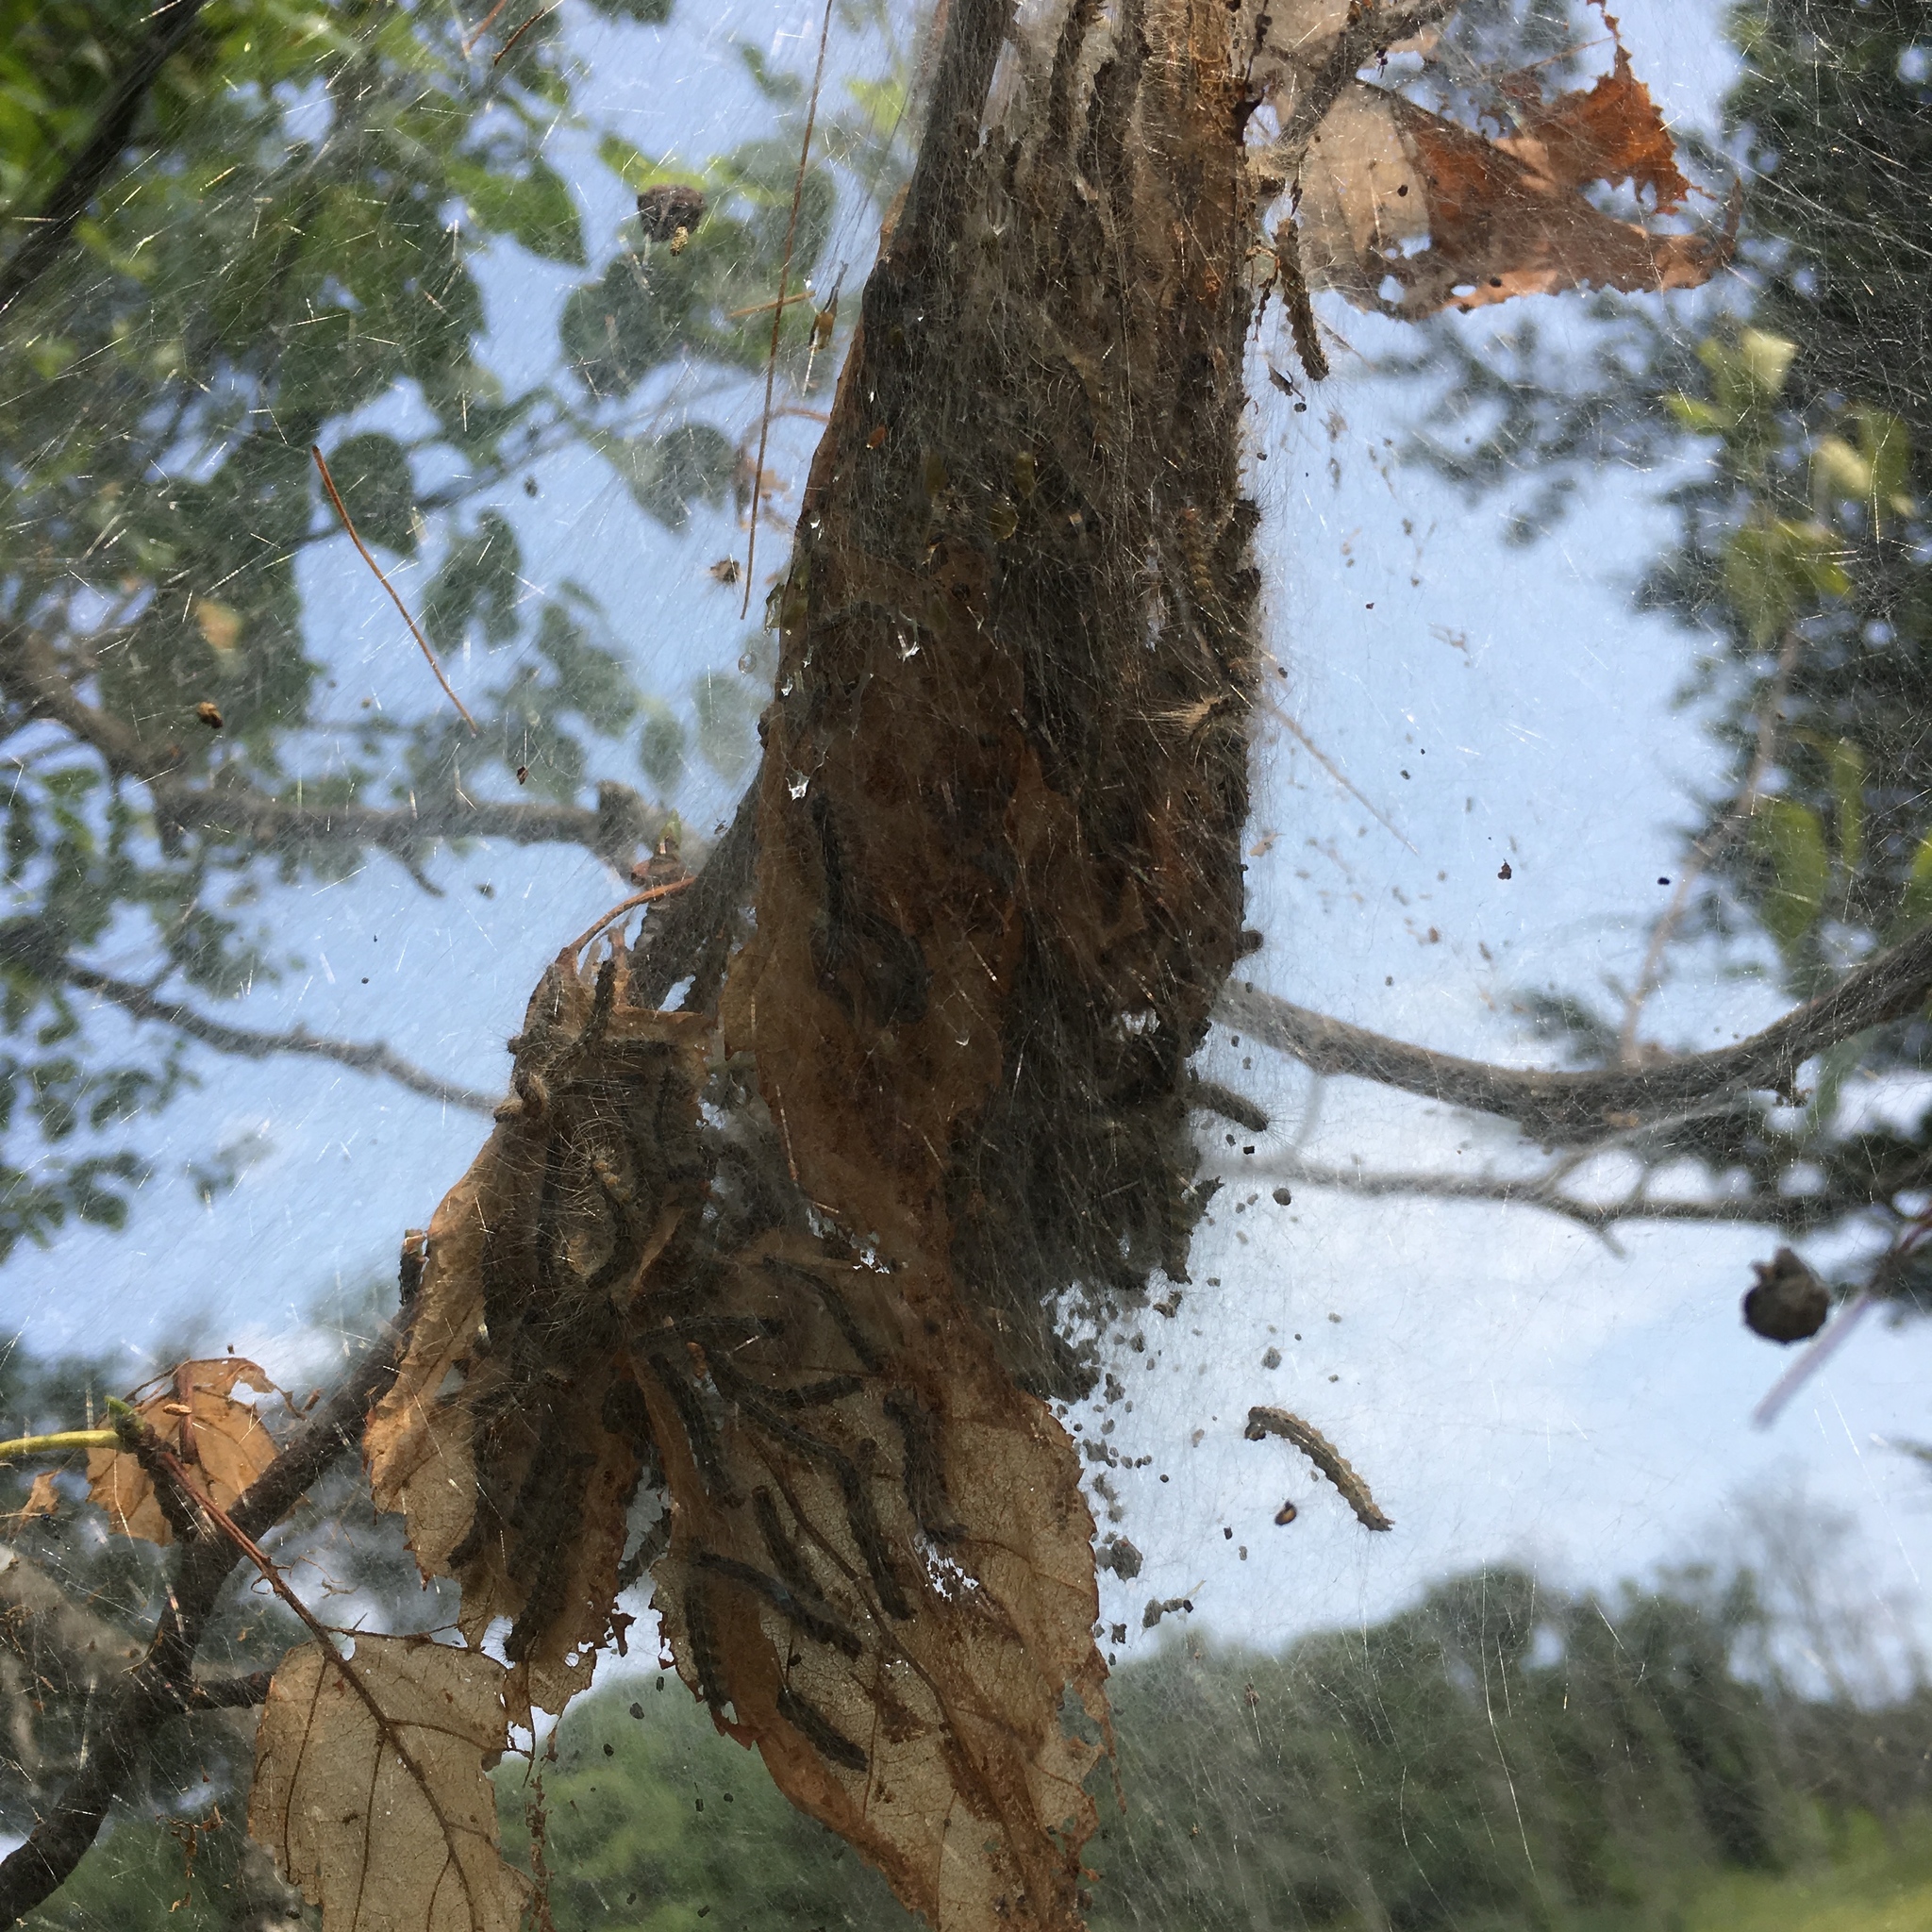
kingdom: Animalia
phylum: Arthropoda
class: Insecta
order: Lepidoptera
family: Erebidae
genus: Hyphantria
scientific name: Hyphantria cunea
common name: American white moth
